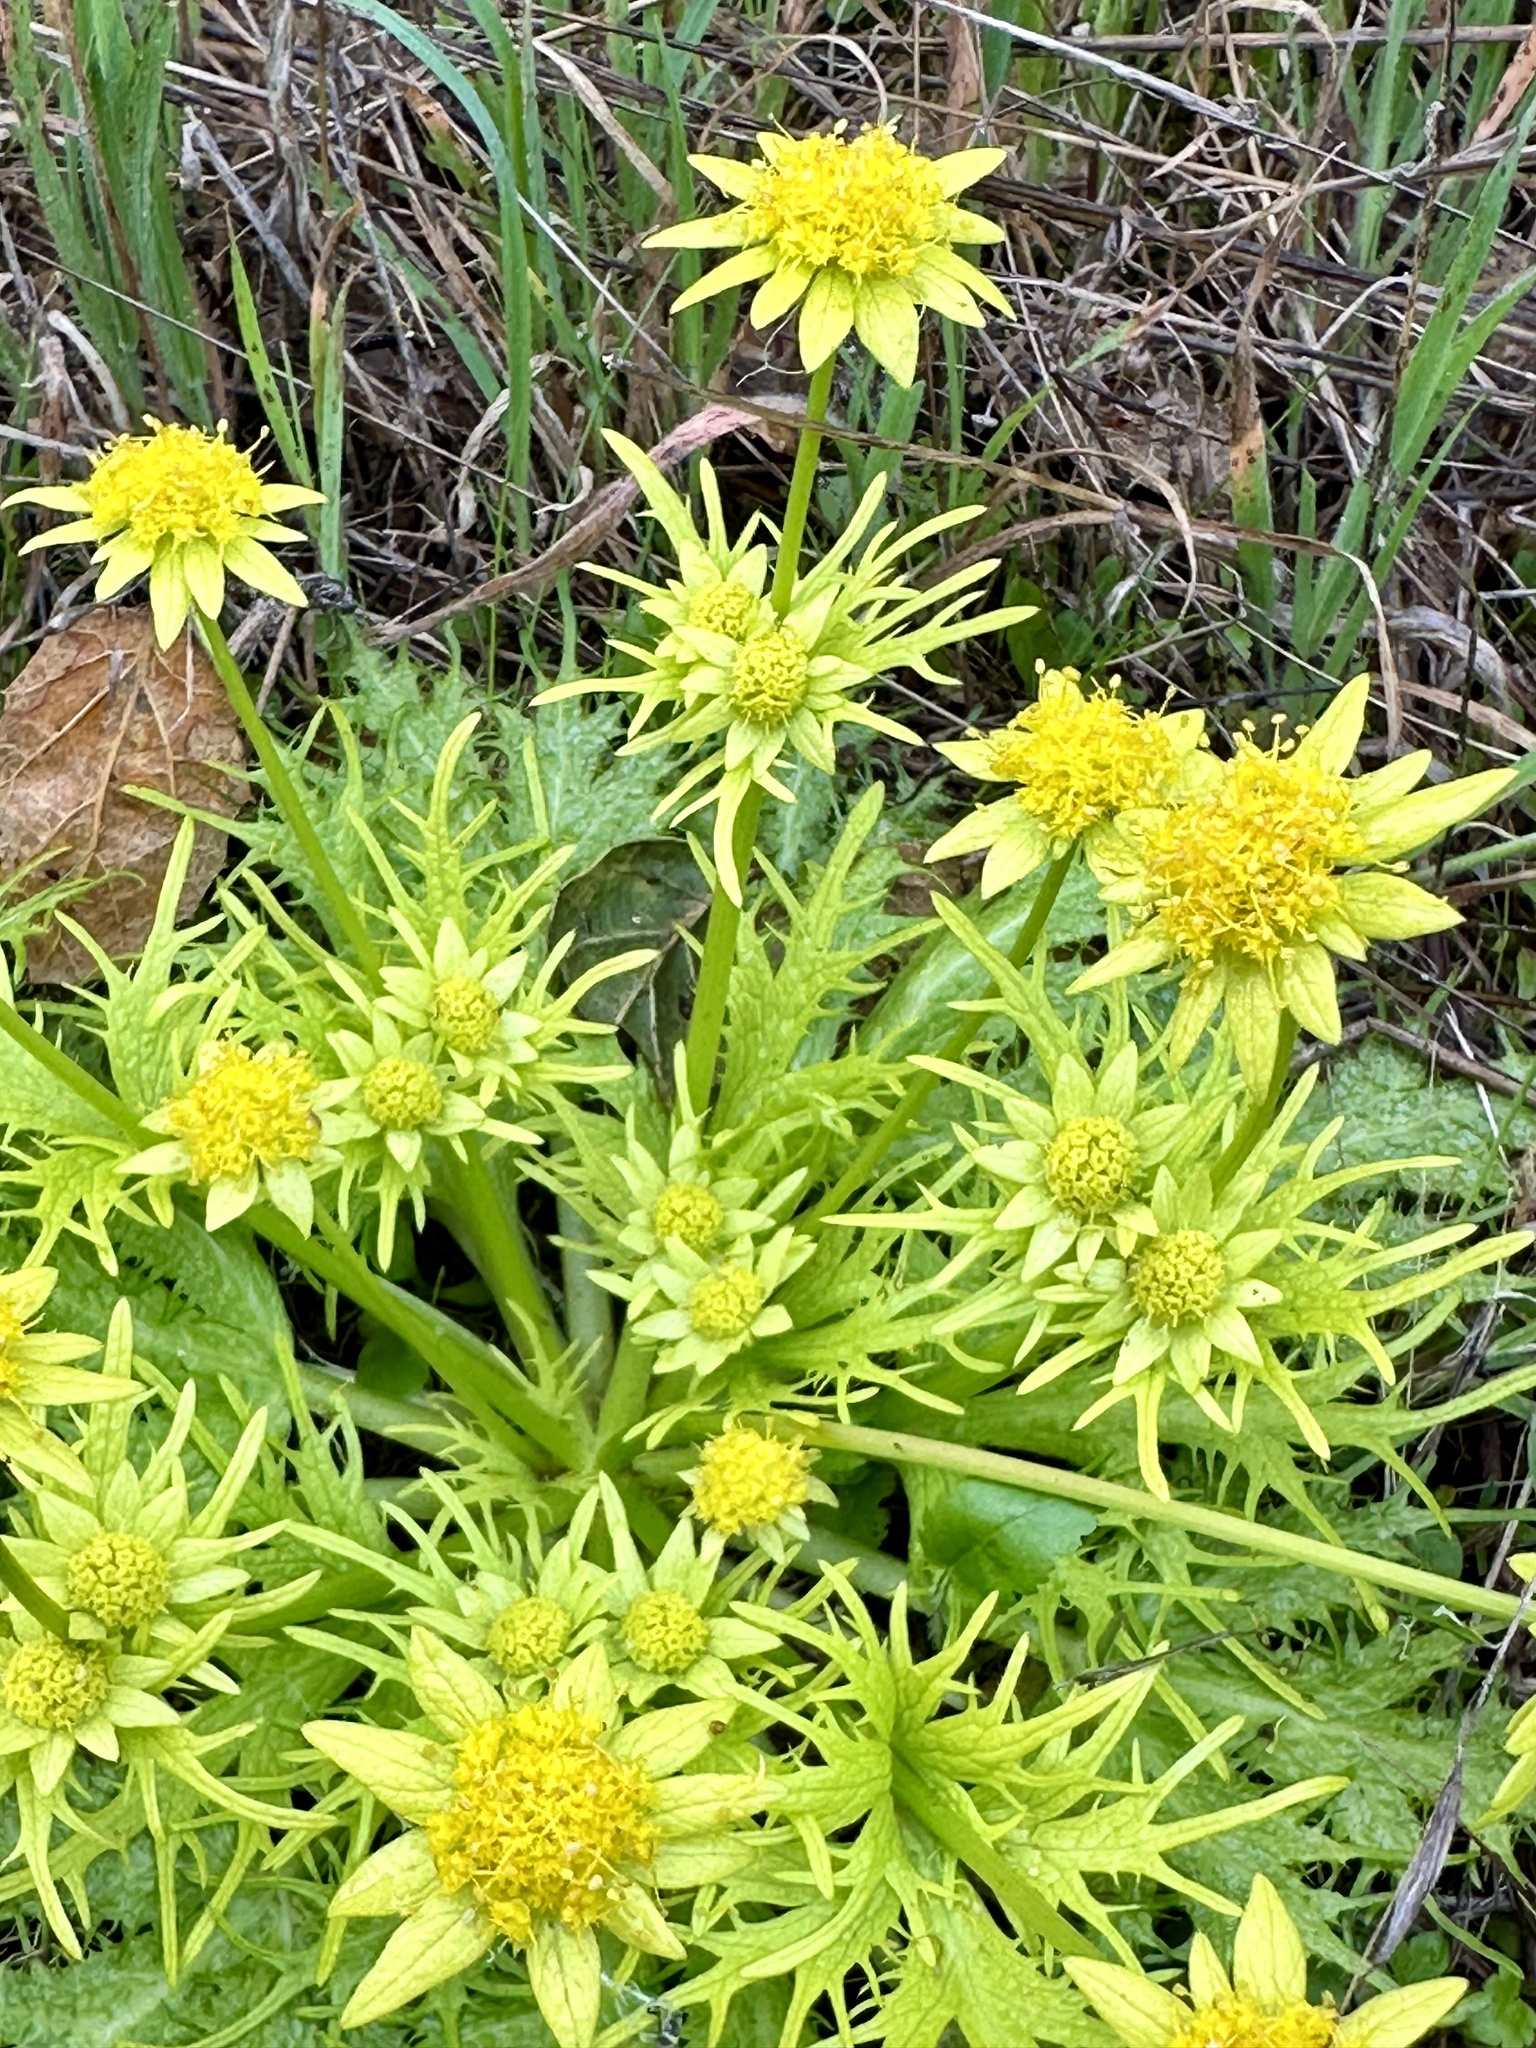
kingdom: Plantae
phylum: Tracheophyta
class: Magnoliopsida
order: Apiales
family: Apiaceae
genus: Sanicula
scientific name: Sanicula arctopoides
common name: Footsteps-of-spring
